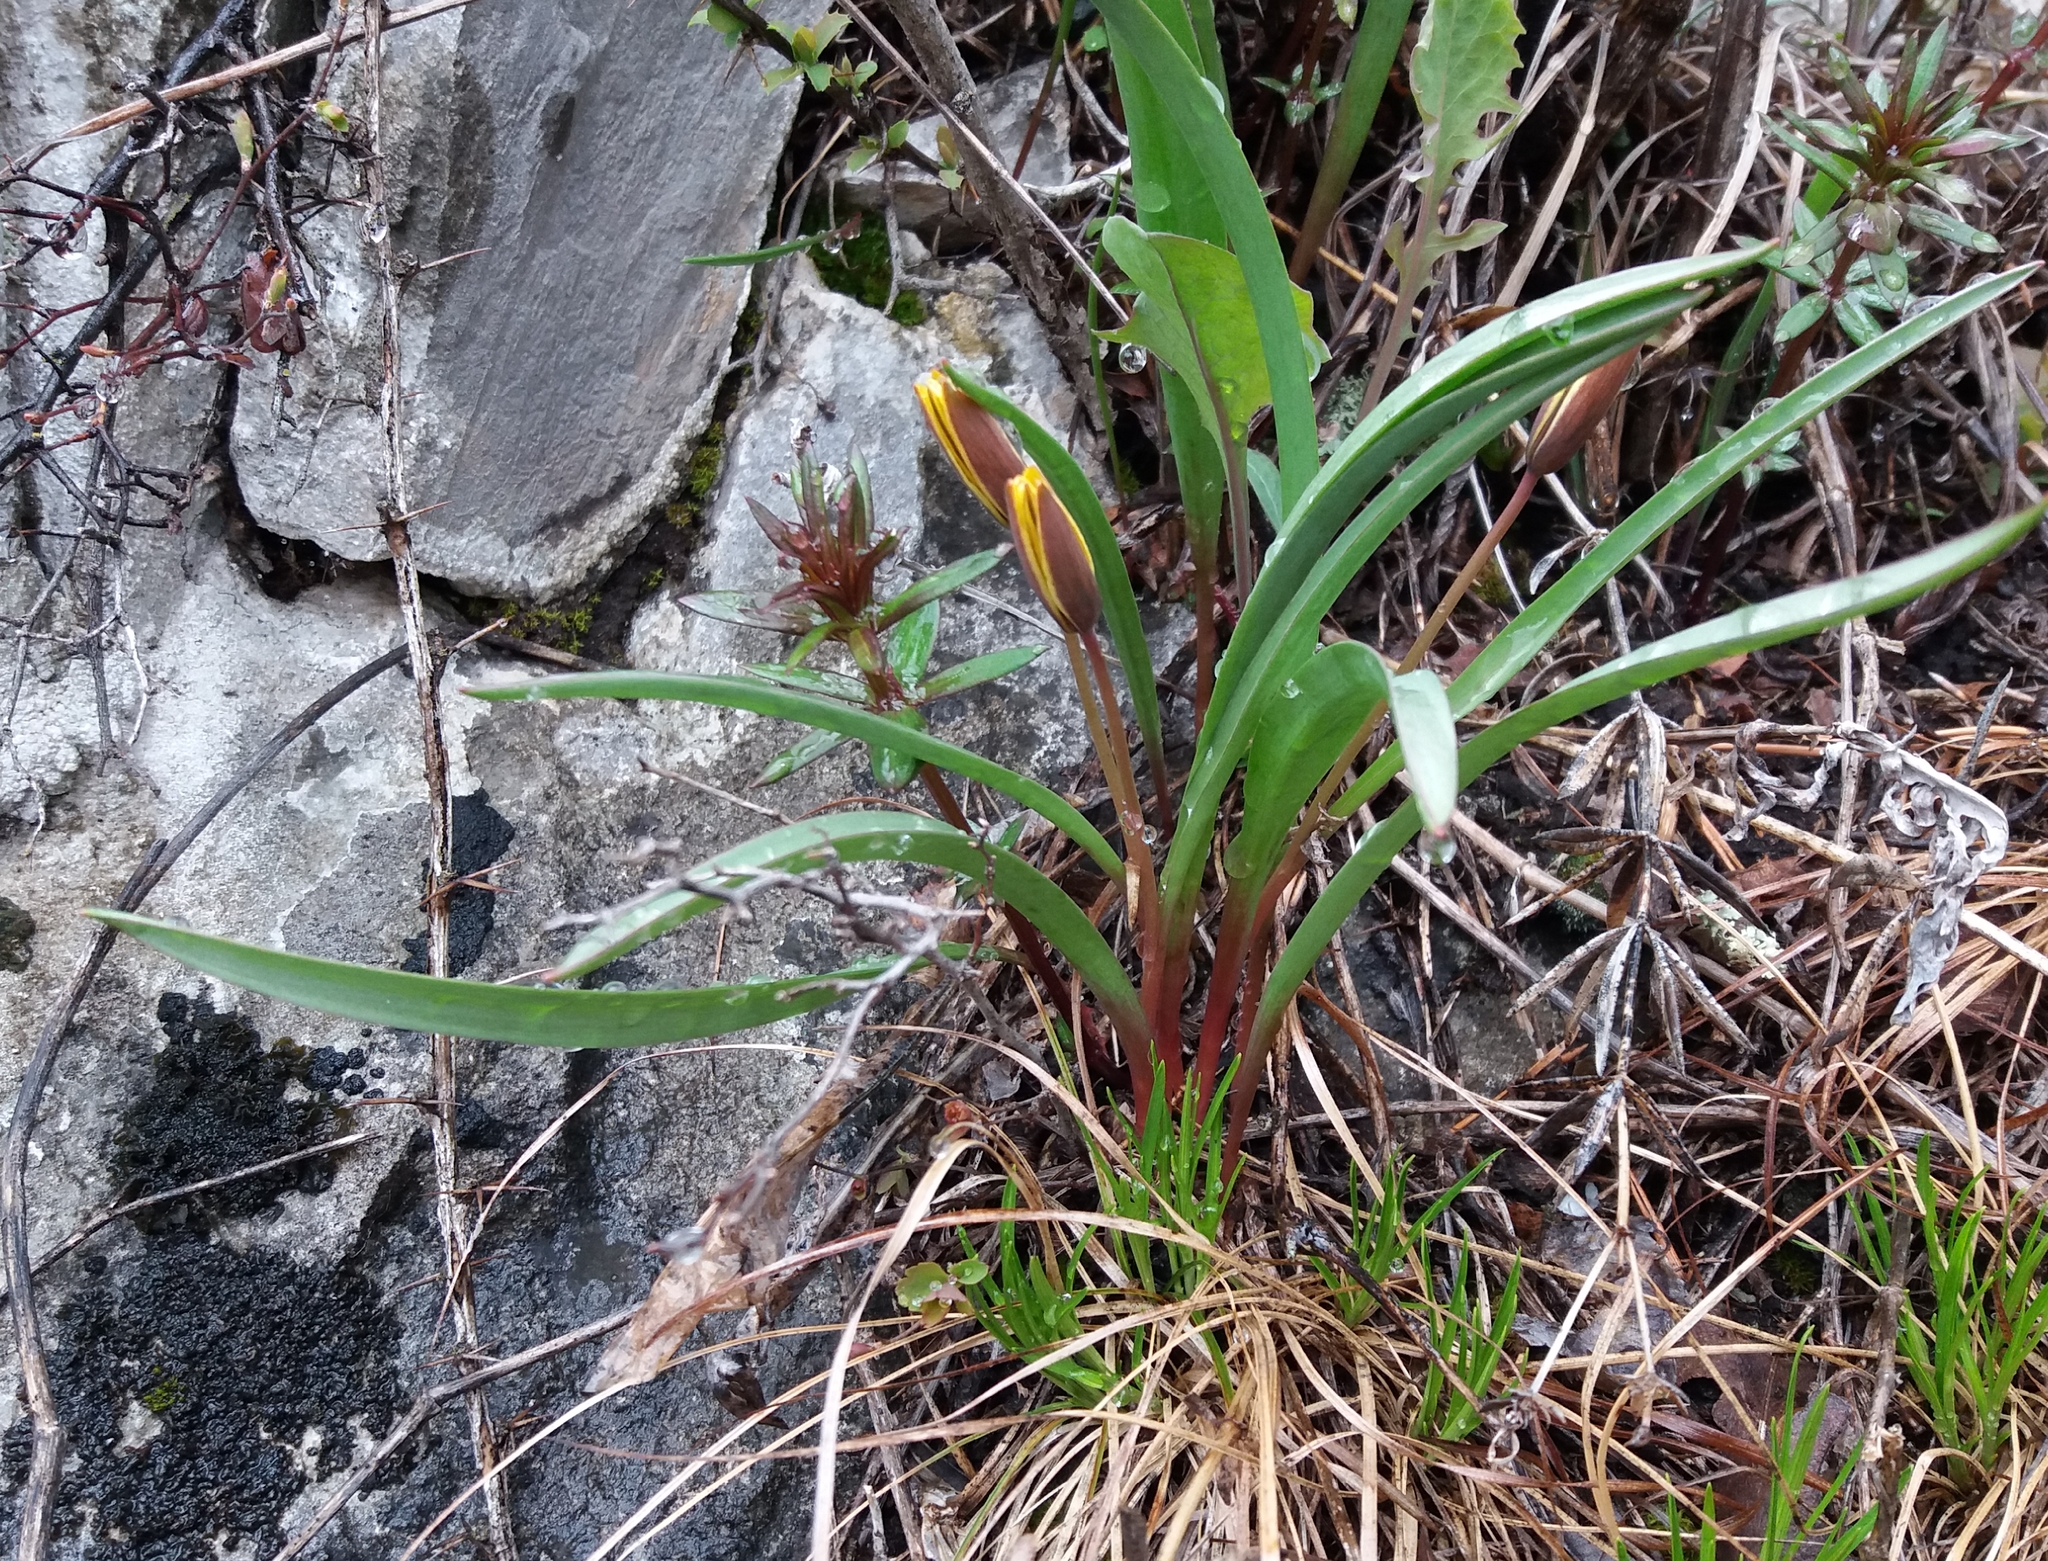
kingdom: Plantae
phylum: Tracheophyta
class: Liliopsida
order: Liliales
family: Liliaceae
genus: Tulipa
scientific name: Tulipa uniflora
